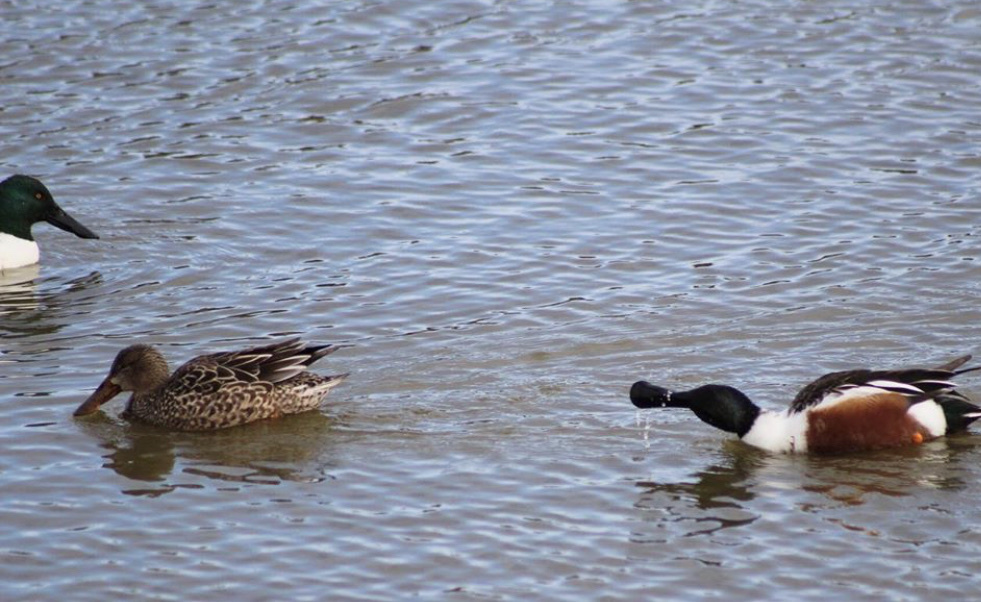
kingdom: Animalia
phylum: Chordata
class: Aves
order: Anseriformes
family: Anatidae
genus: Spatula
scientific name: Spatula clypeata
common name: Northern shoveler
